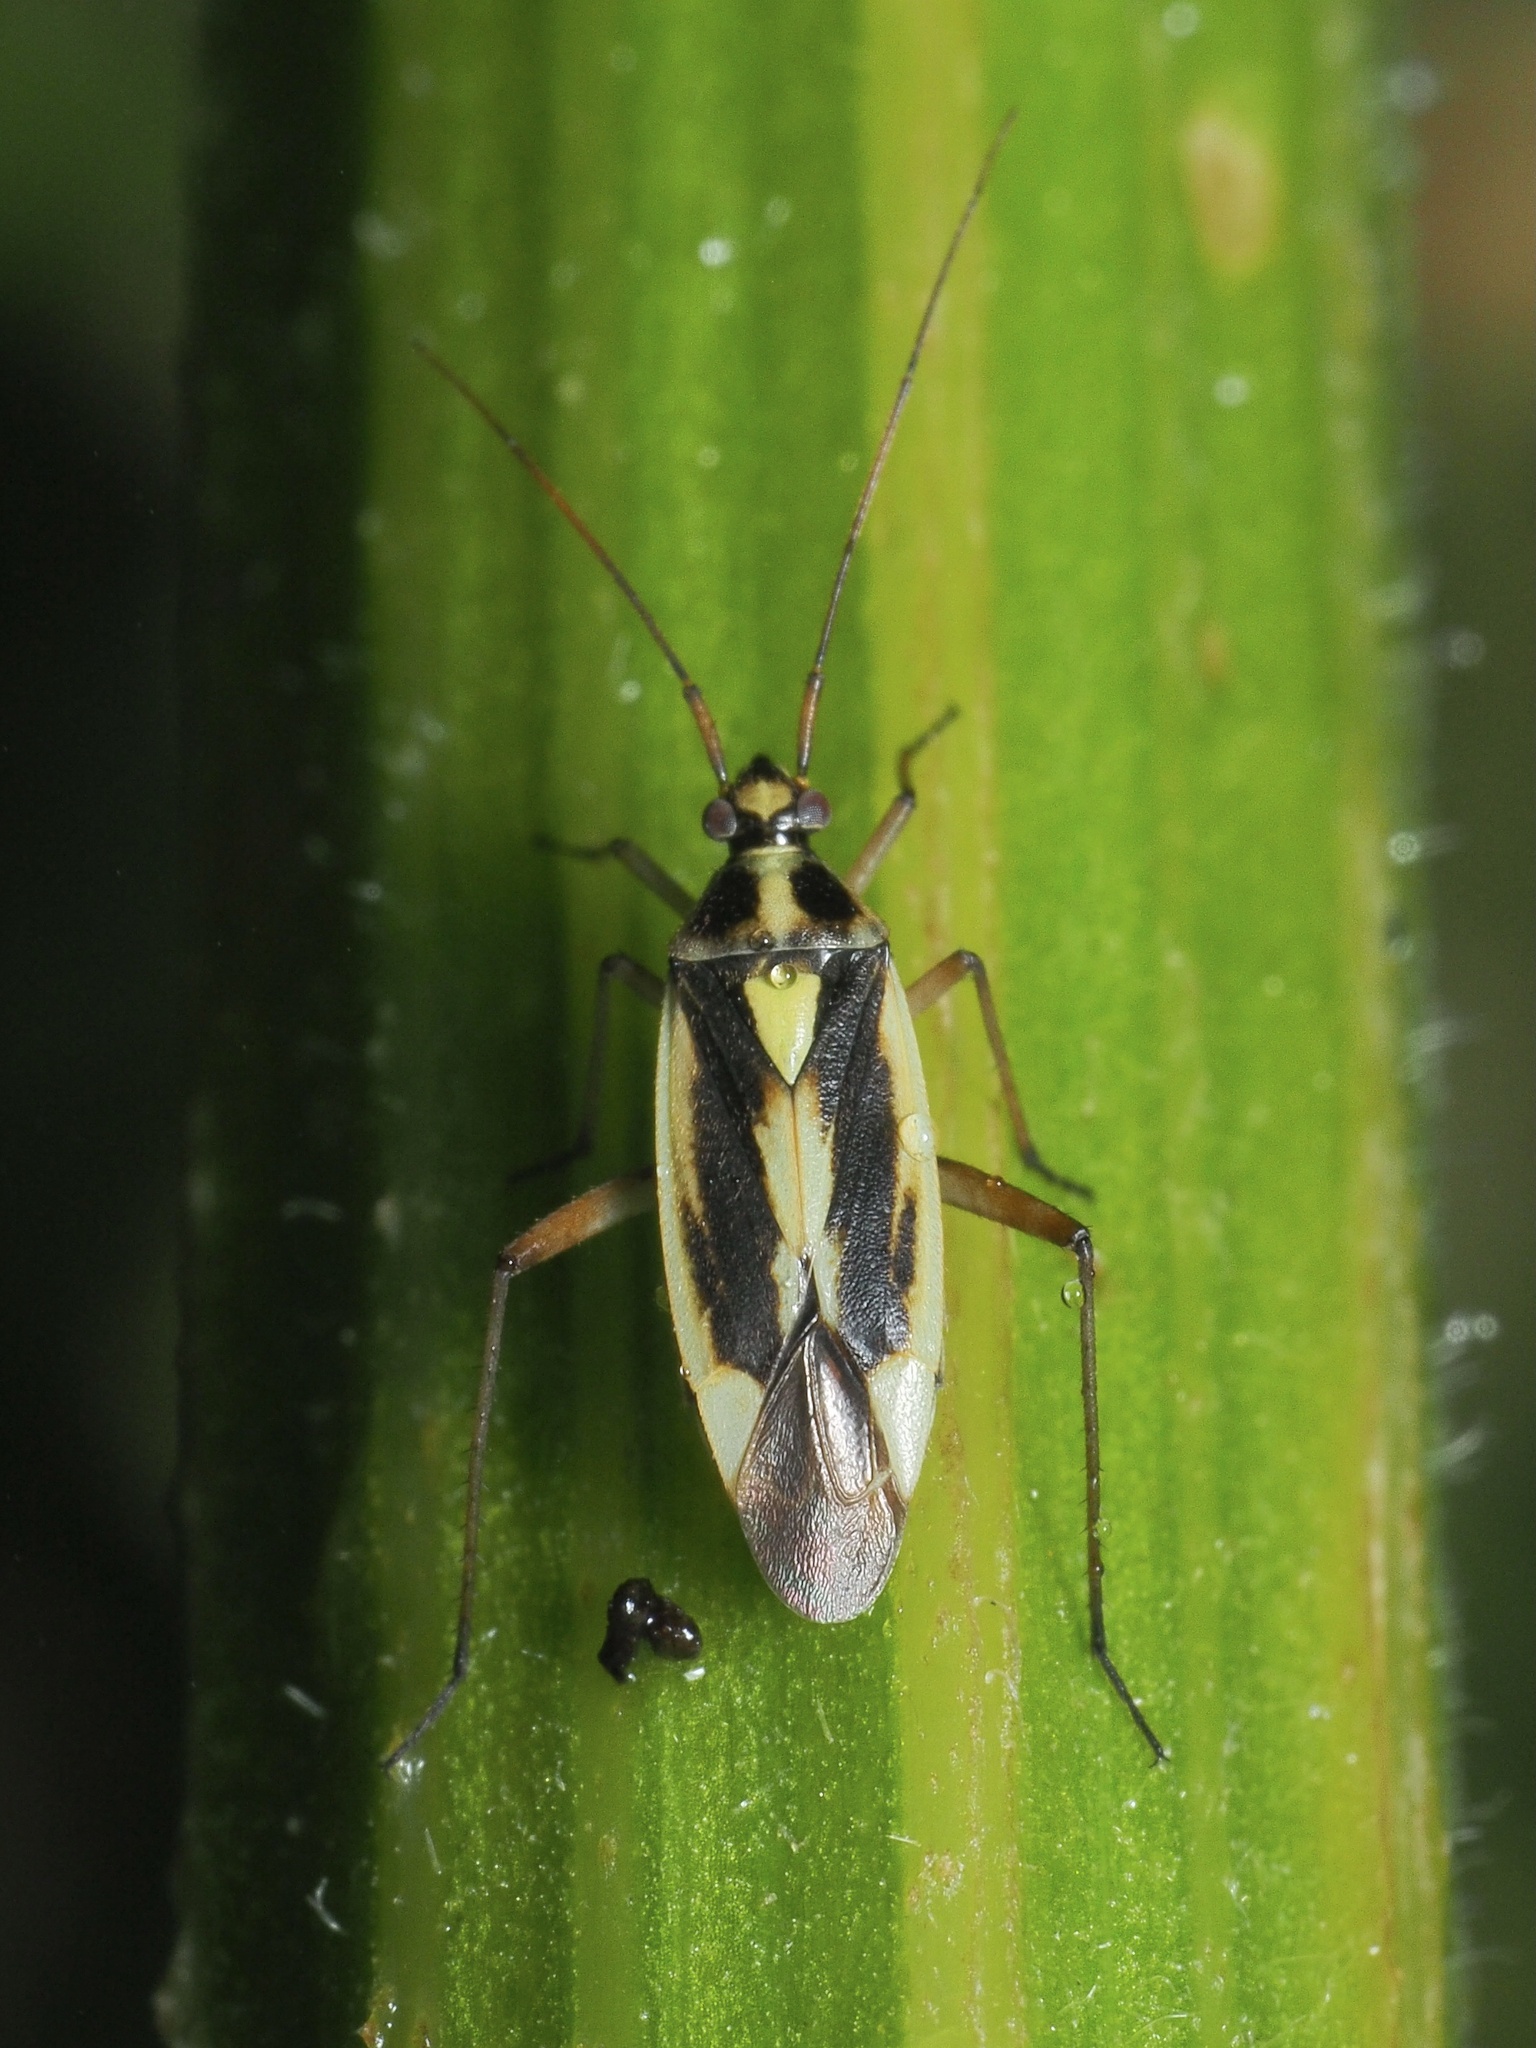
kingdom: Animalia
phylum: Arthropoda
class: Insecta
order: Hemiptera
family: Miridae
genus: Stenotus
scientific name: Stenotus binotatus
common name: Plant bug
